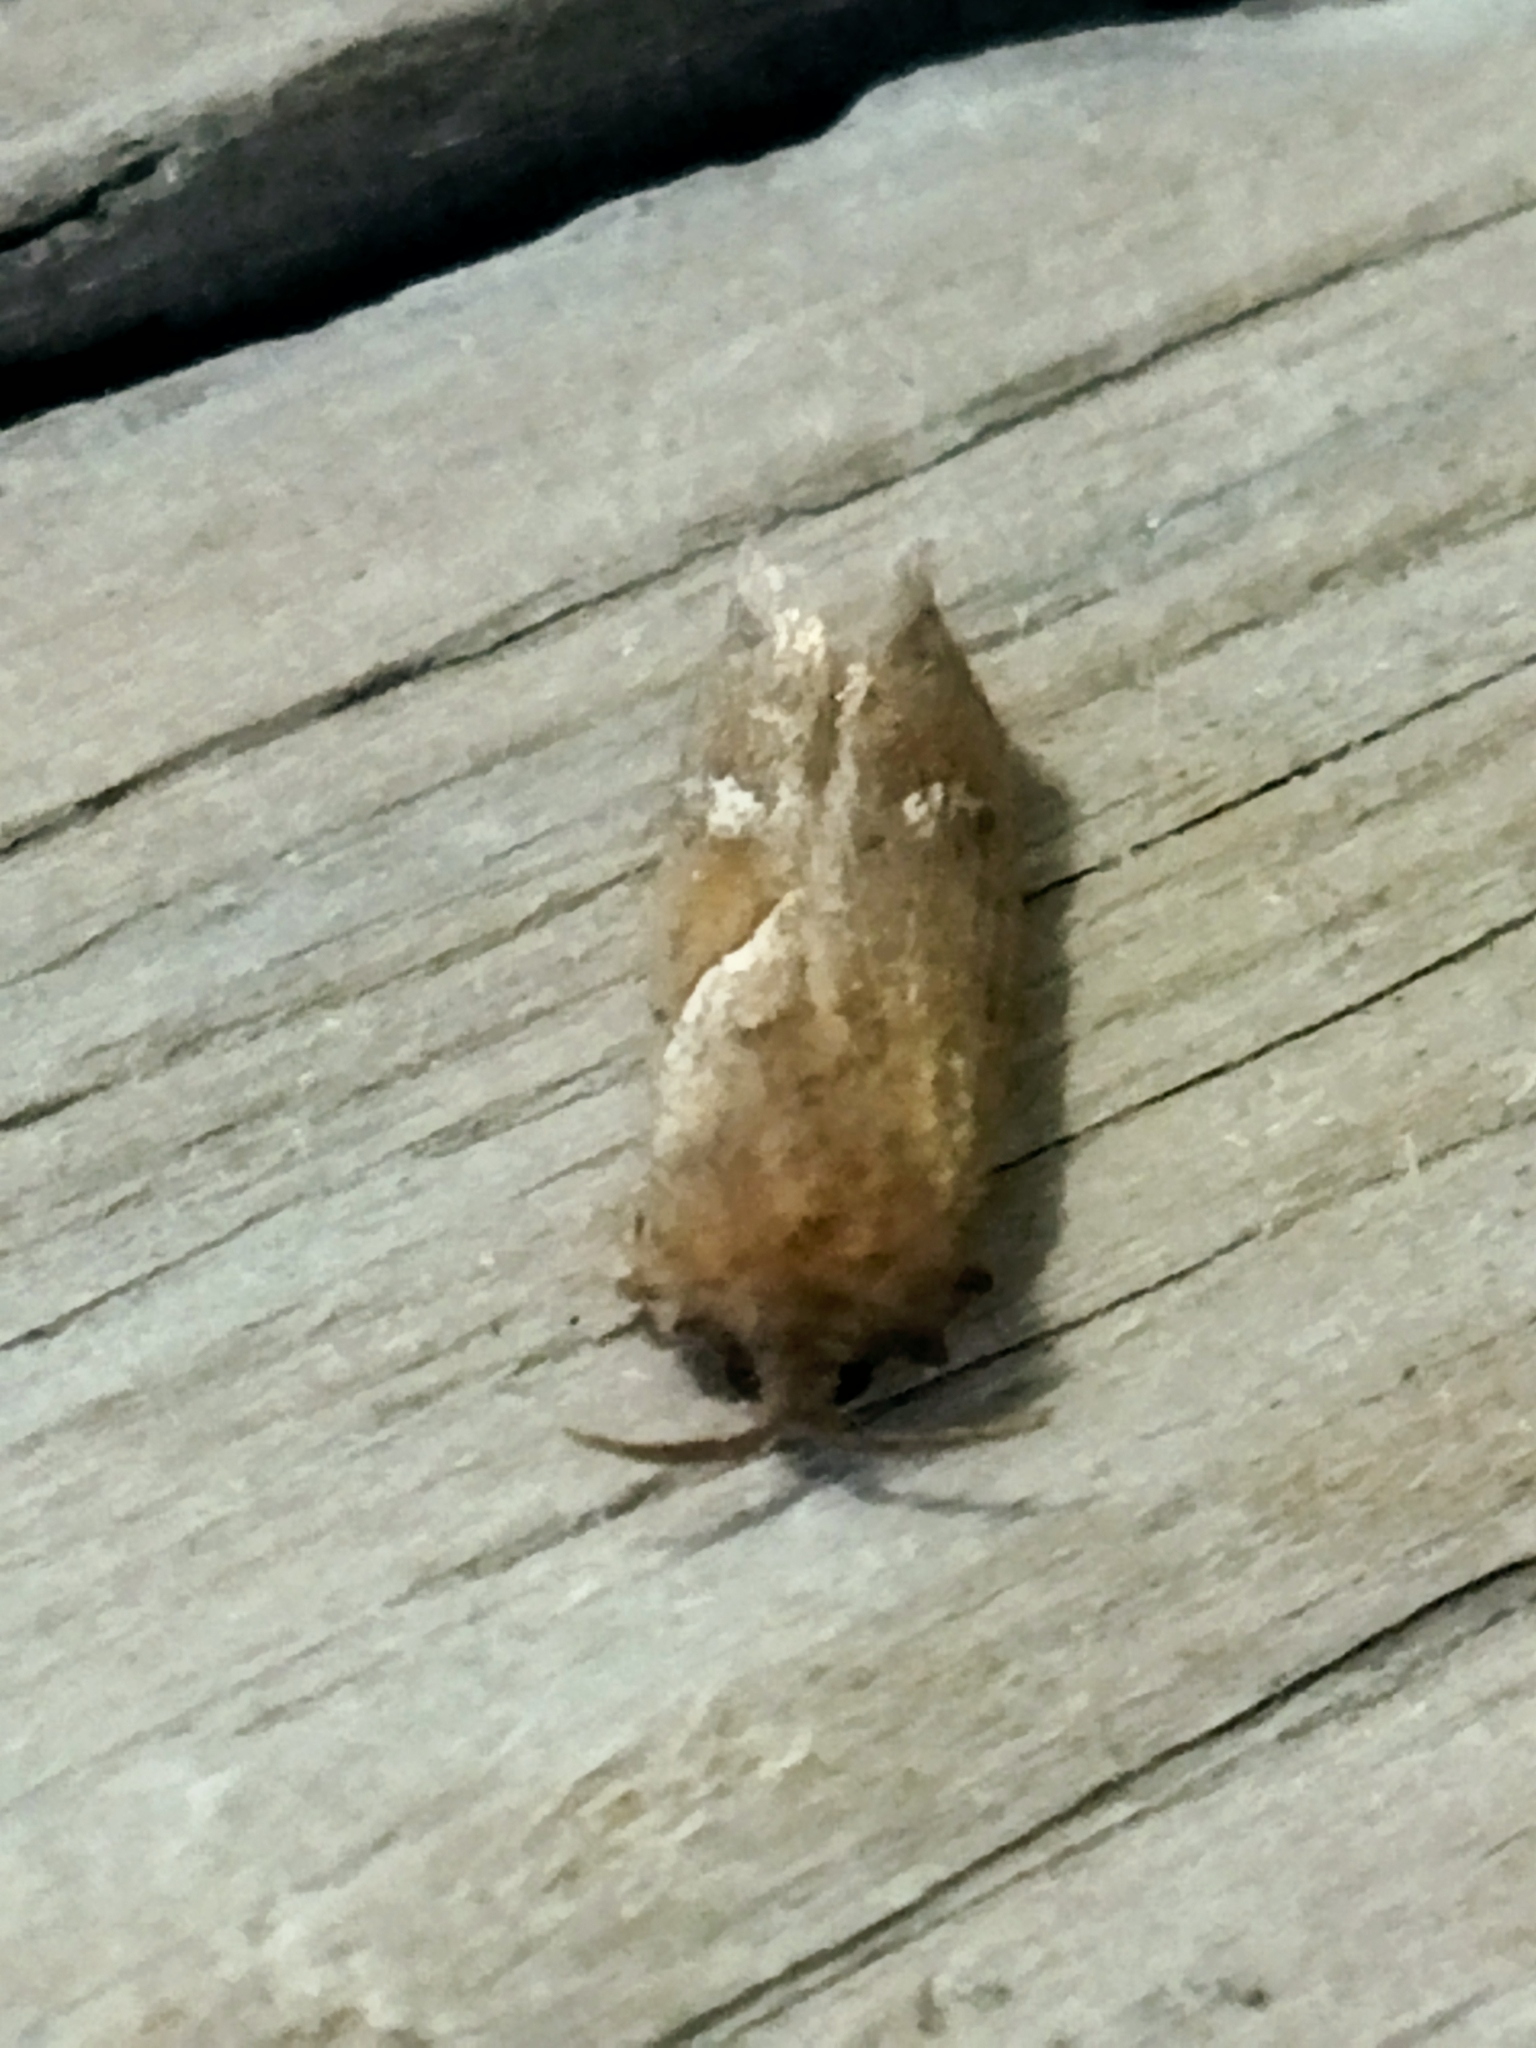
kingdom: Animalia
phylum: Arthropoda
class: Insecta
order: Lepidoptera
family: Hepialidae
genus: Triodia
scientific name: Triodia sylvina
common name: Orange swift
